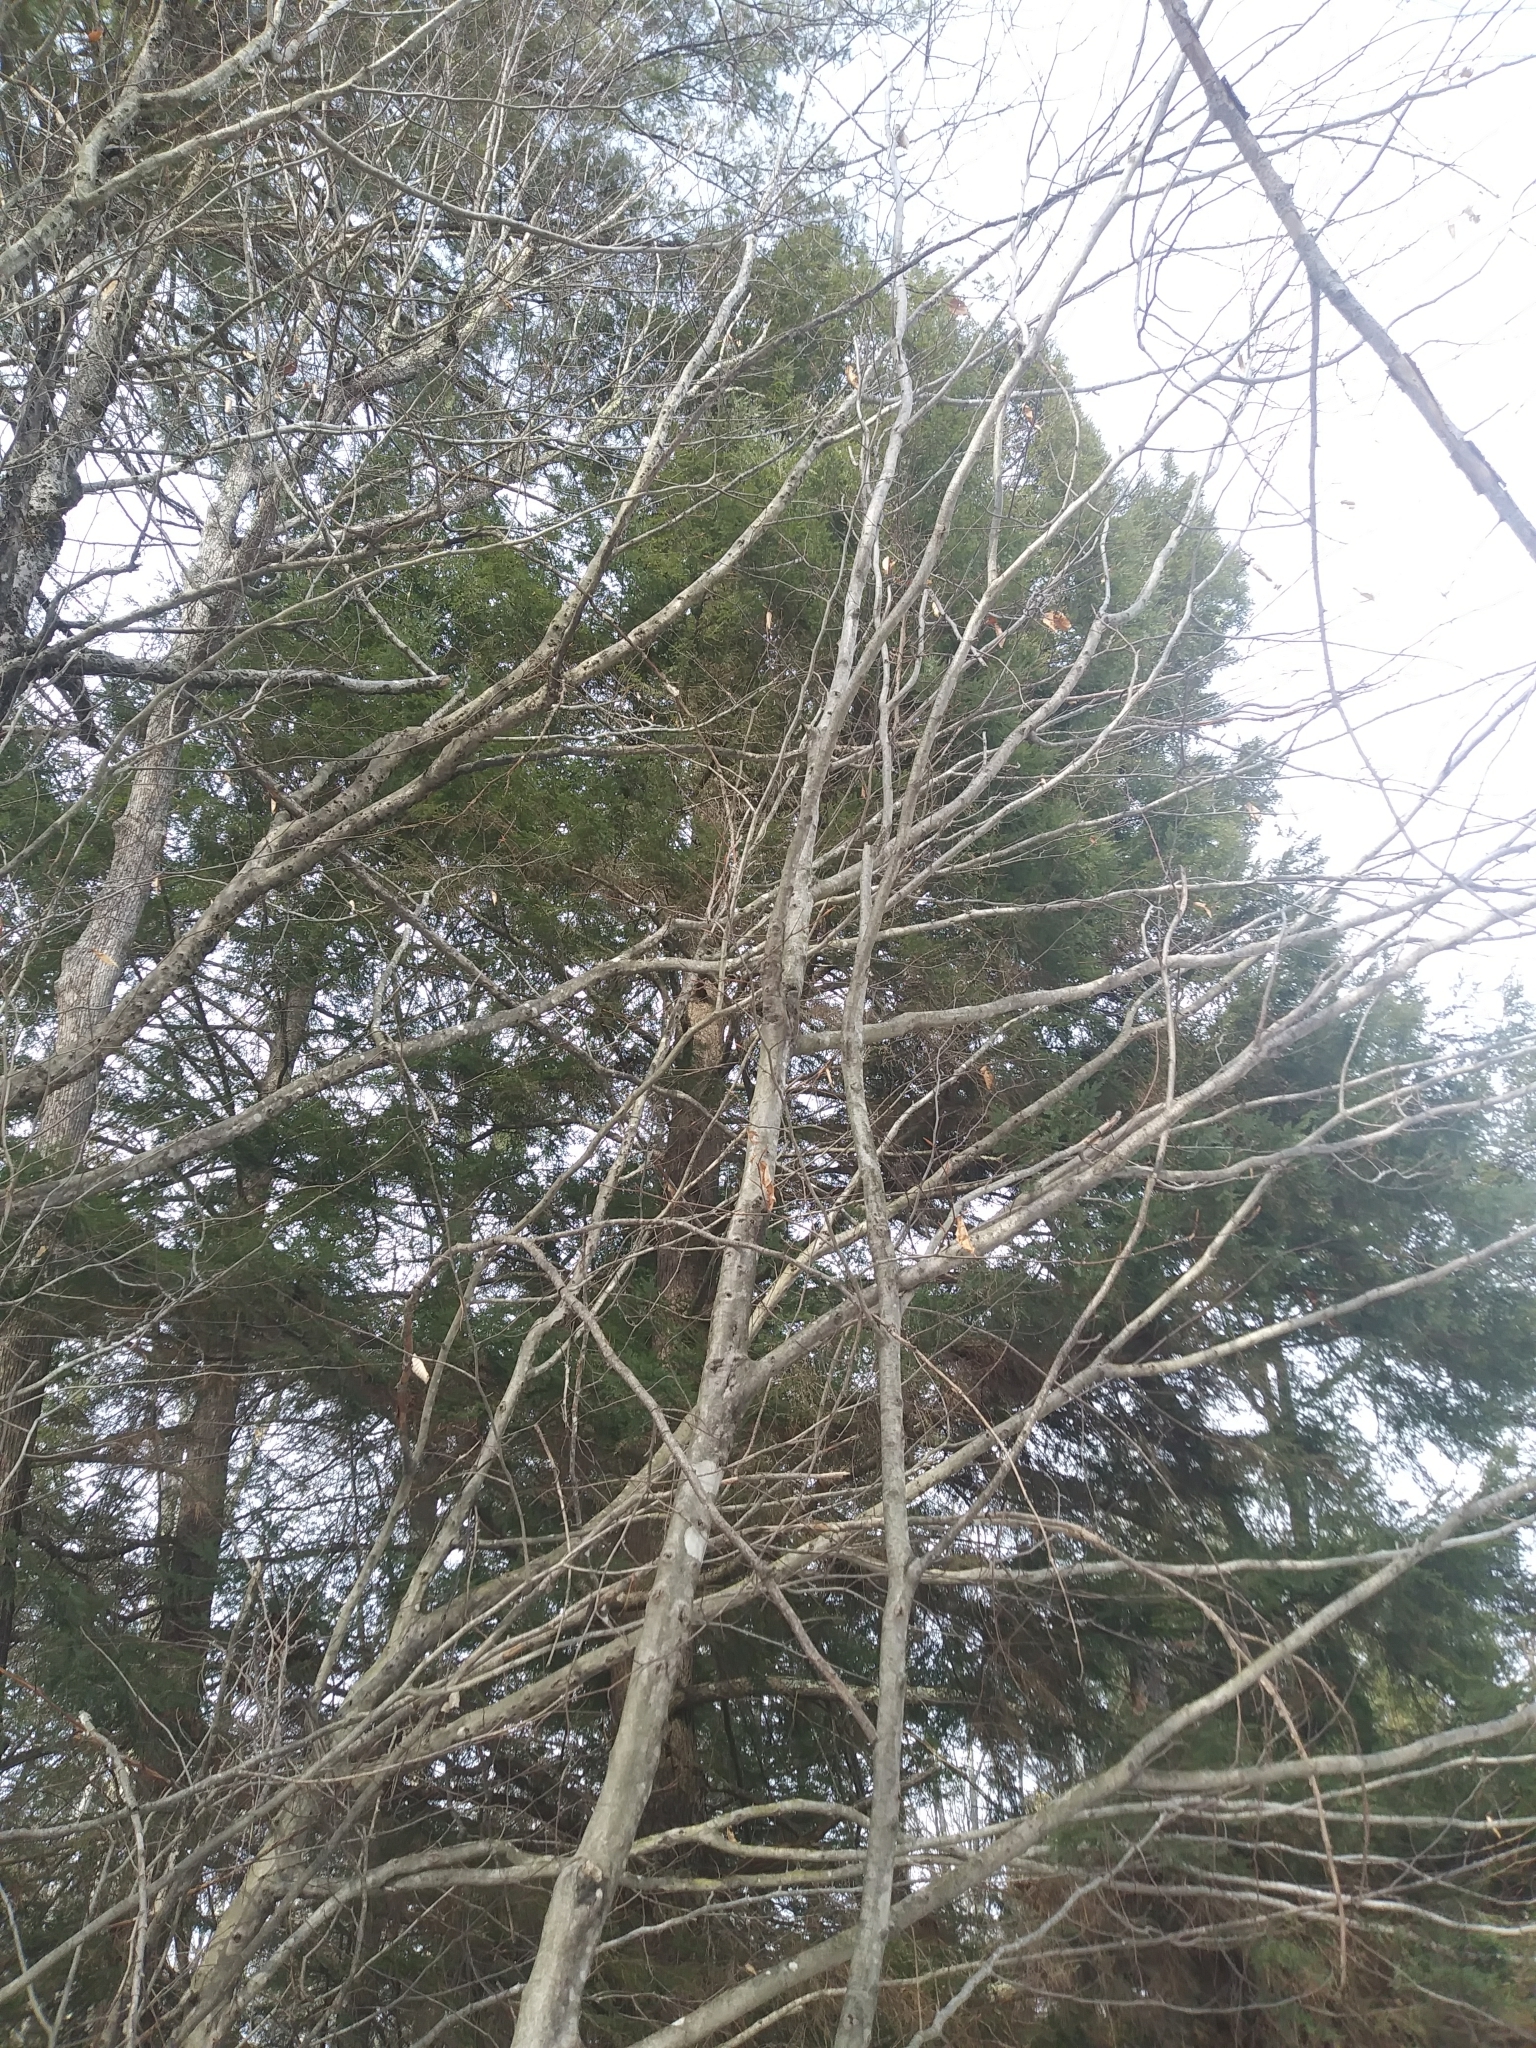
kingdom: Plantae
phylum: Tracheophyta
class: Pinopsida
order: Pinales
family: Pinaceae
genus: Tsuga
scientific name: Tsuga canadensis
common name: Eastern hemlock
